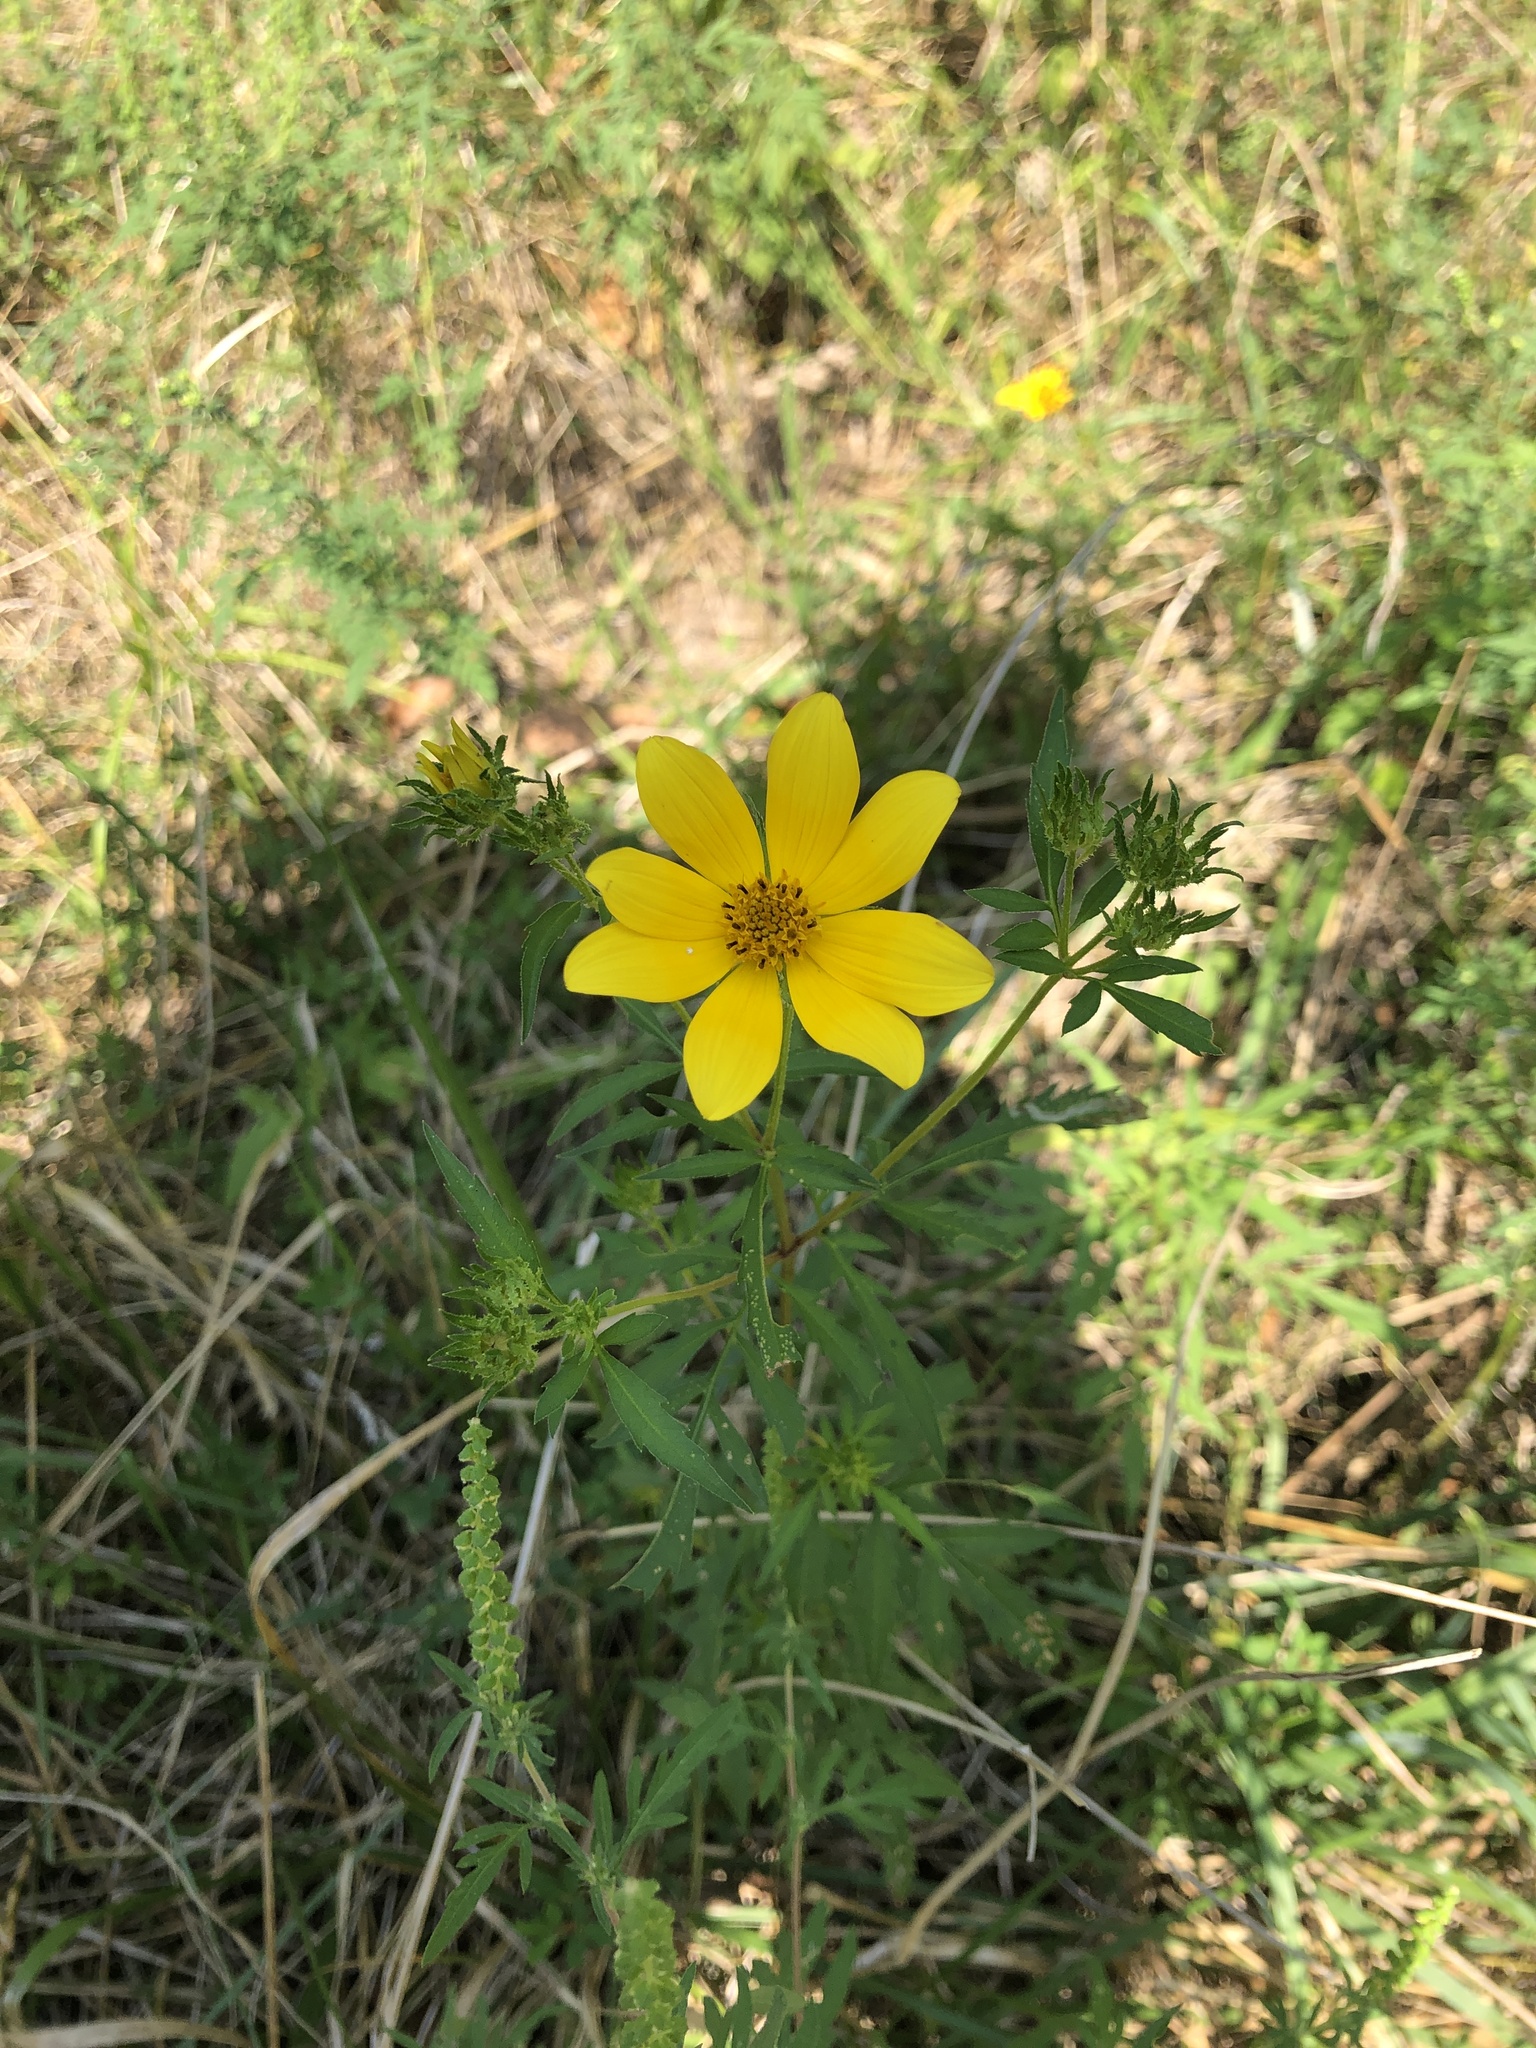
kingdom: Plantae
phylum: Tracheophyta
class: Magnoliopsida
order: Asterales
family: Asteraceae
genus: Bidens
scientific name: Bidens aristosa
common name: Western tickseed
